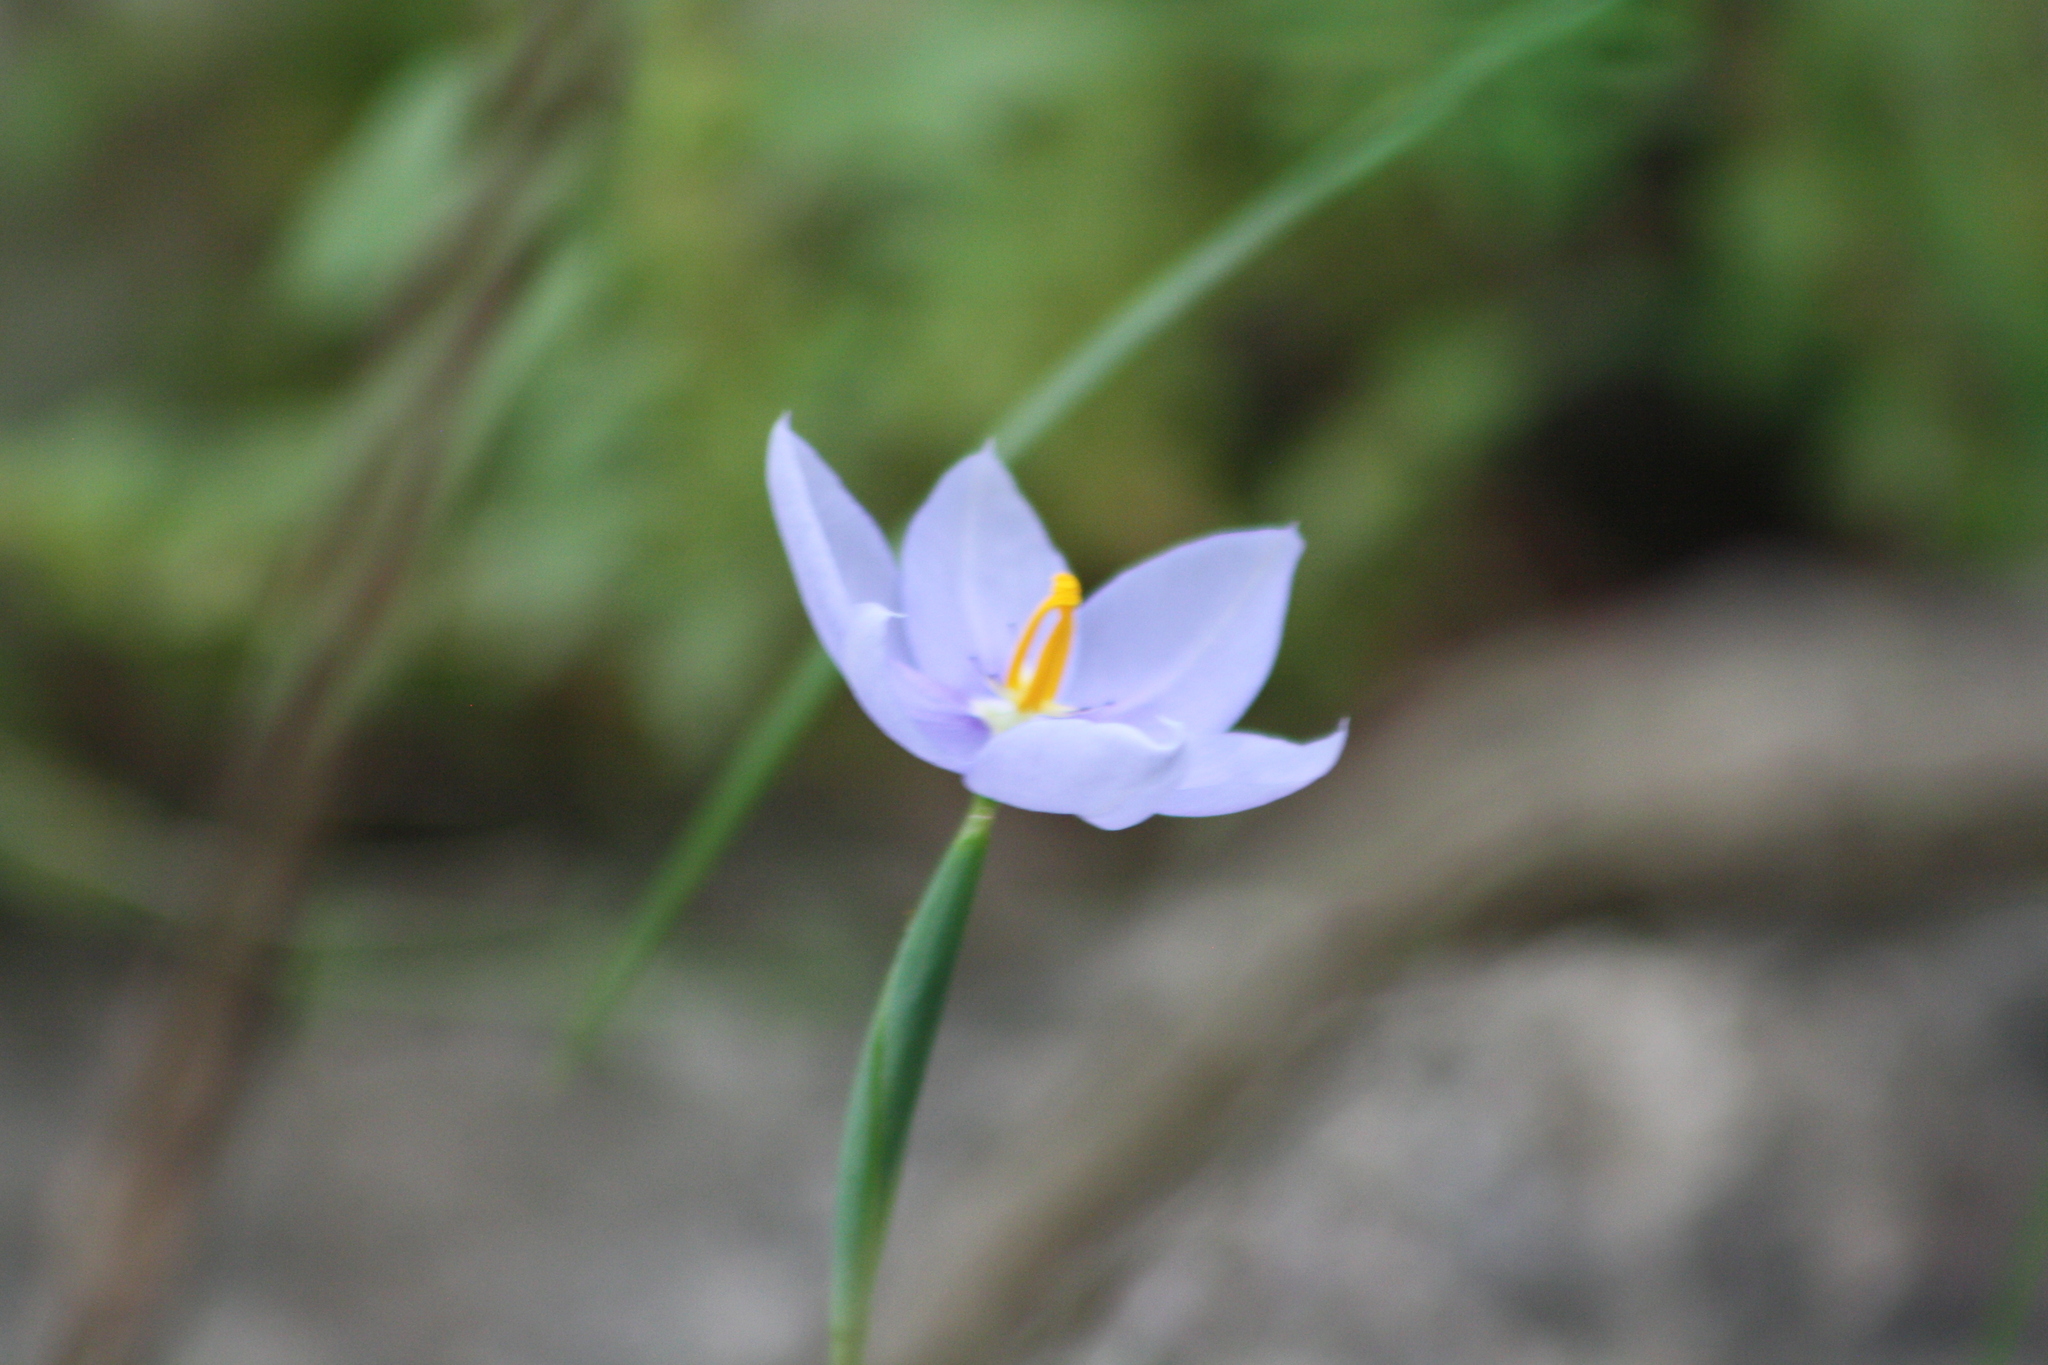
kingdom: Plantae
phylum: Tracheophyta
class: Liliopsida
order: Asparagales
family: Iridaceae
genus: Nemastylis
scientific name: Nemastylis geminiflora
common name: Prairie celestial
